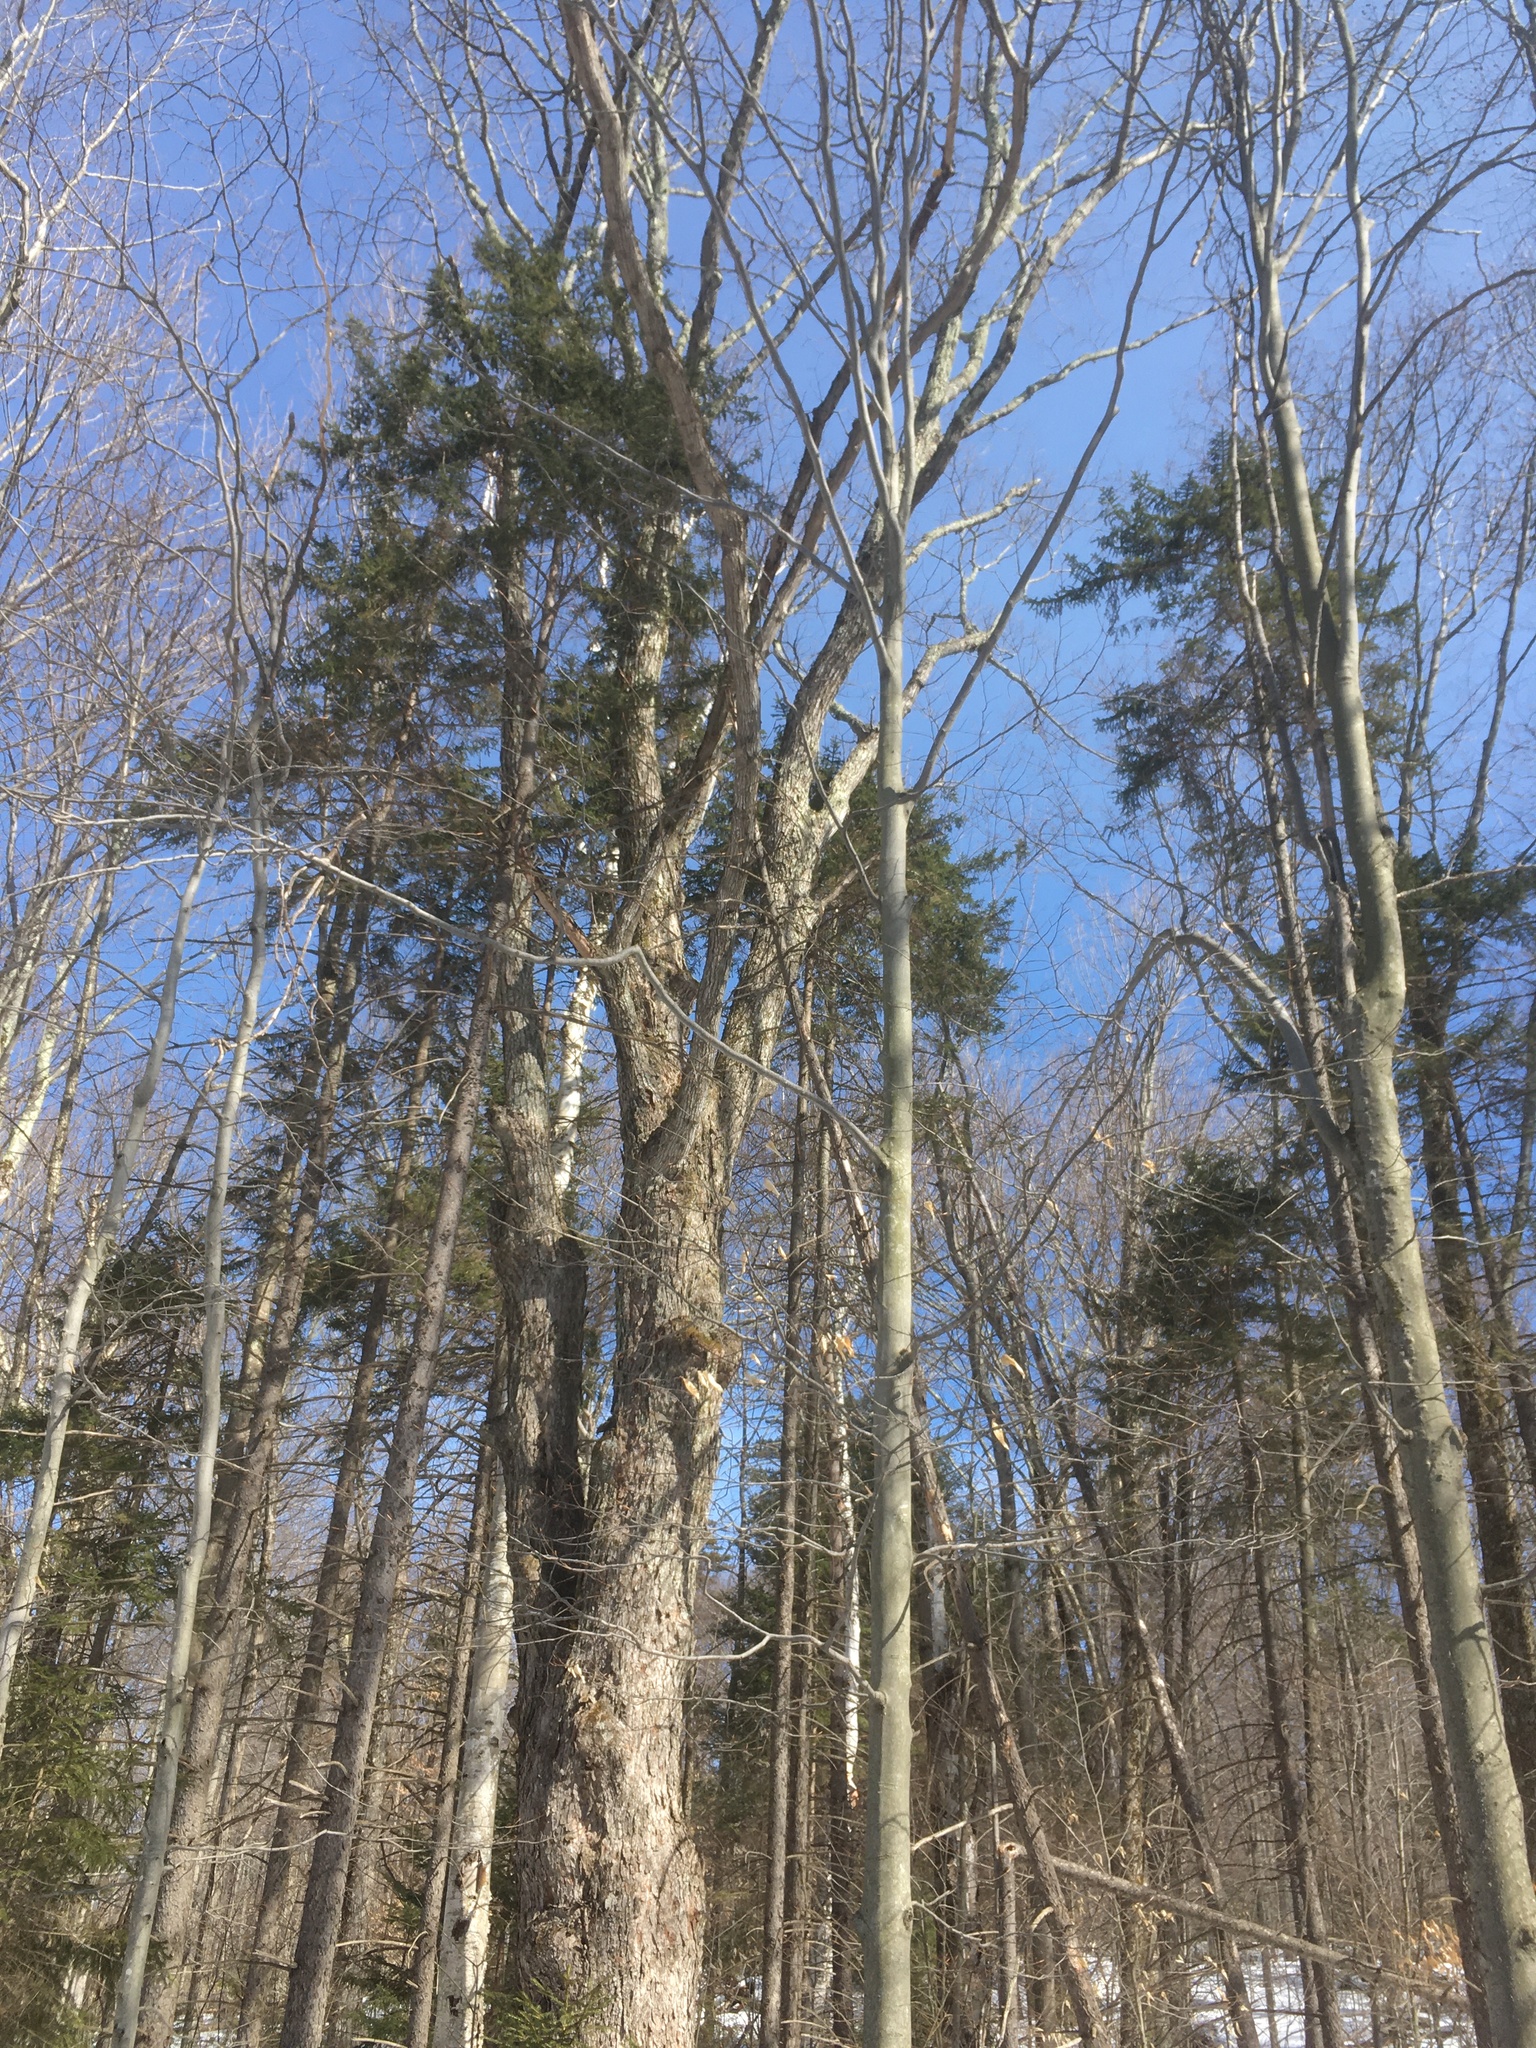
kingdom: Plantae
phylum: Tracheophyta
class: Magnoliopsida
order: Sapindales
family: Sapindaceae
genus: Acer
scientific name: Acer saccharum
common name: Sugar maple
